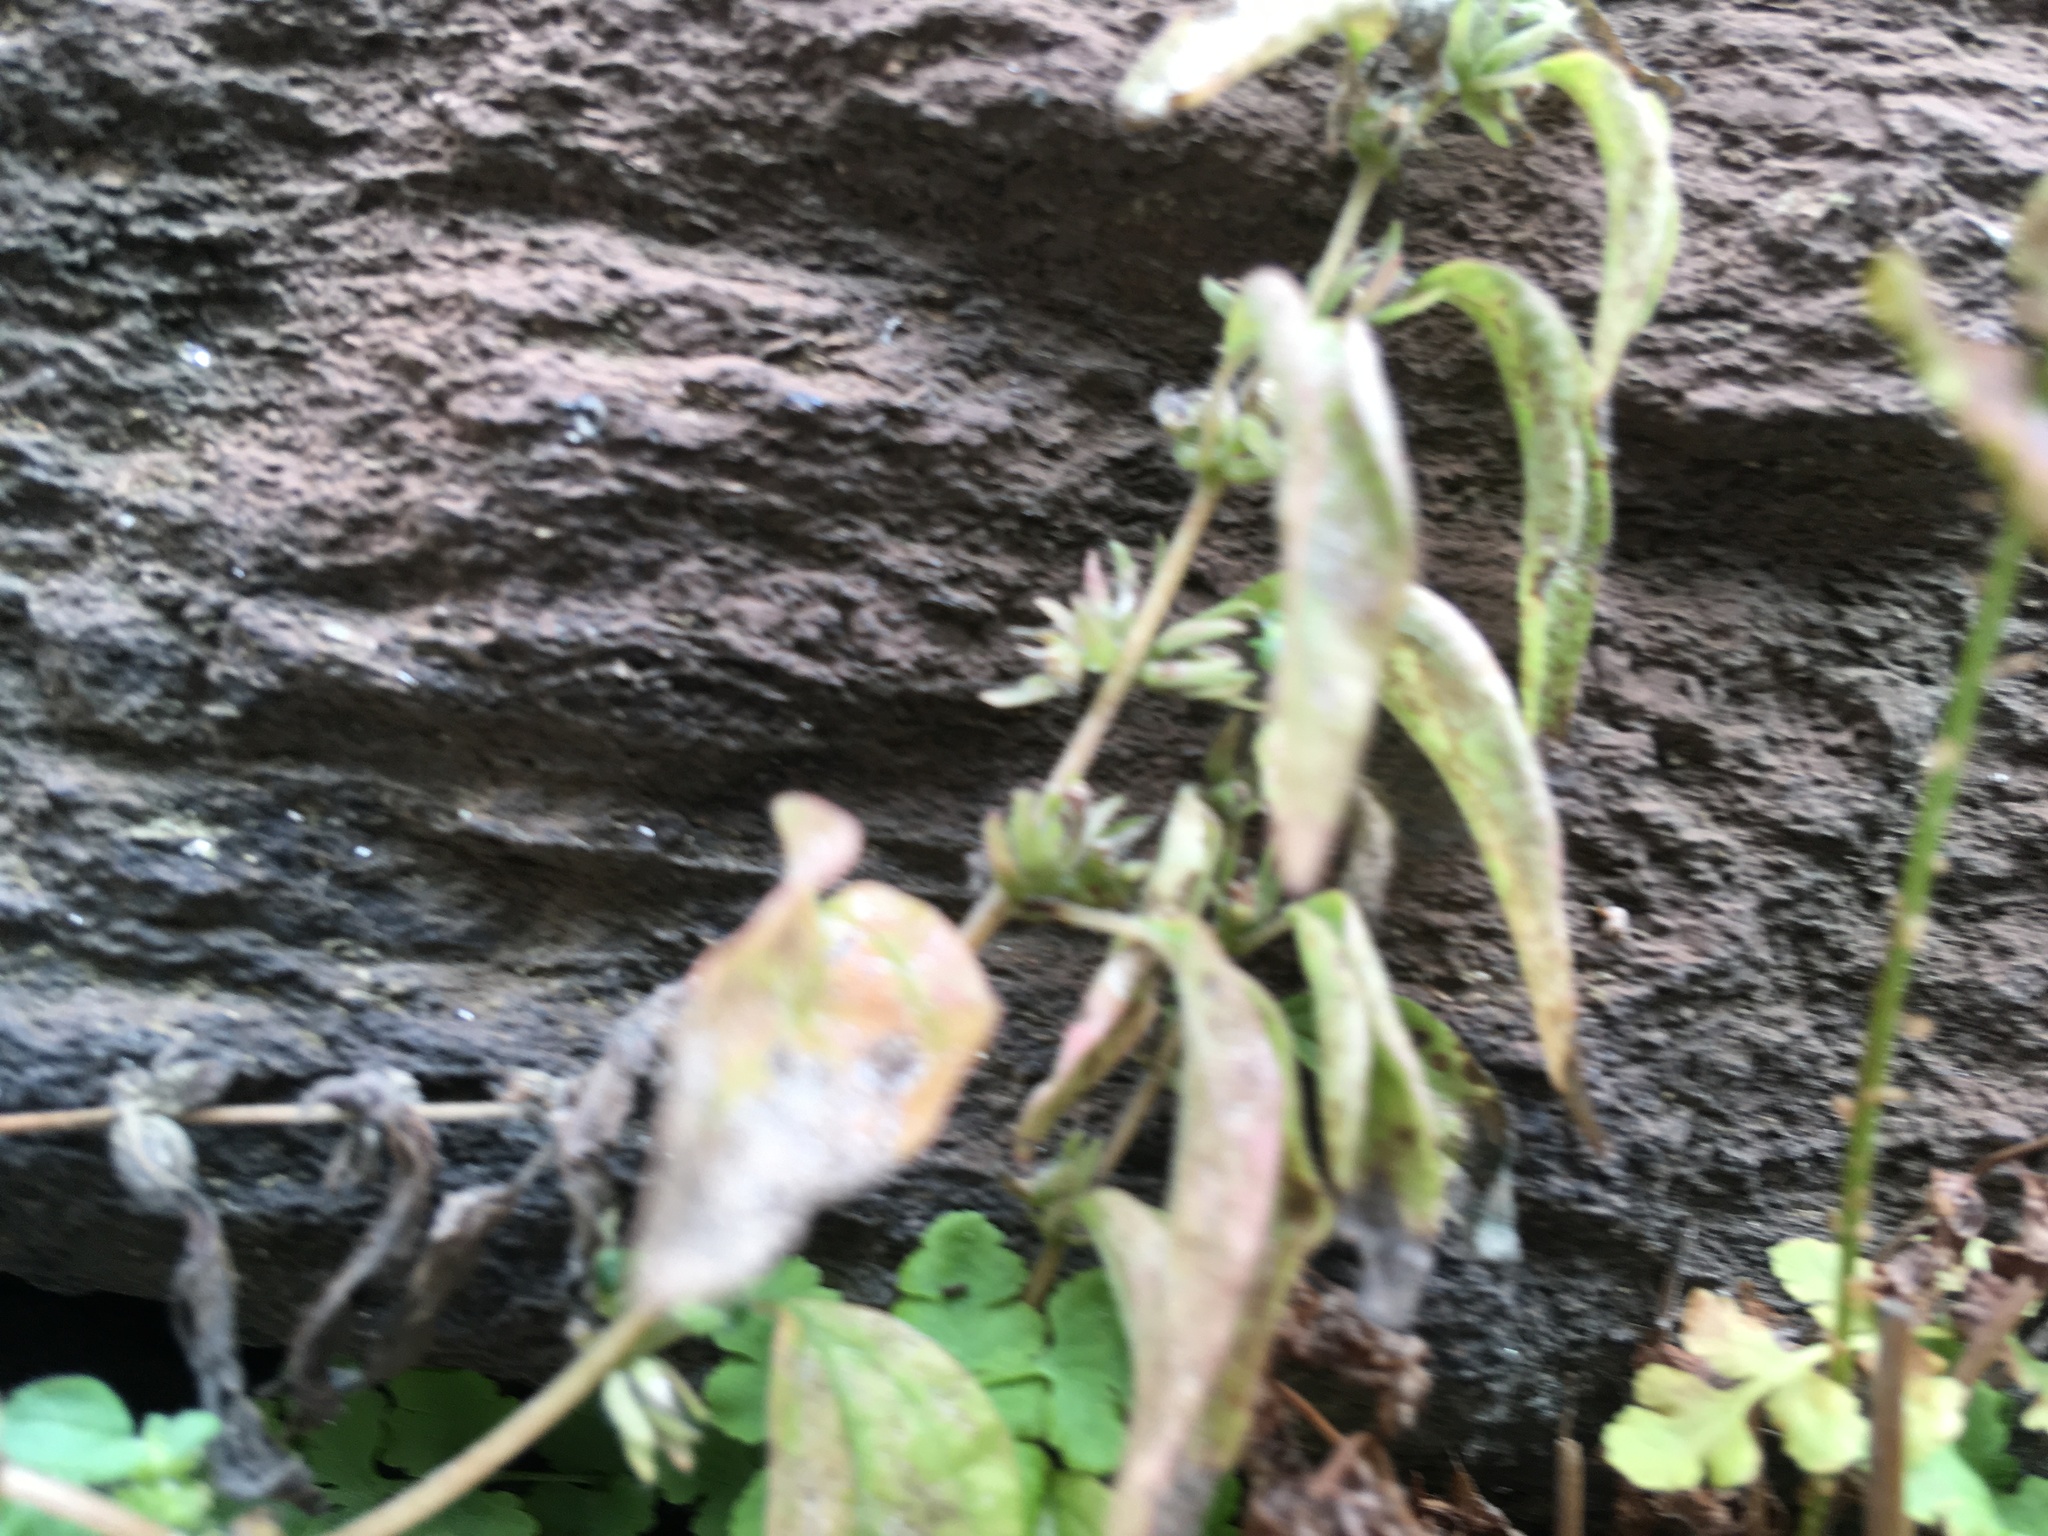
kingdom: Plantae
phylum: Tracheophyta
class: Magnoliopsida
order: Rosales
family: Urticaceae
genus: Parietaria
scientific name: Parietaria pensylvanica
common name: Pennsylvania pellitory
